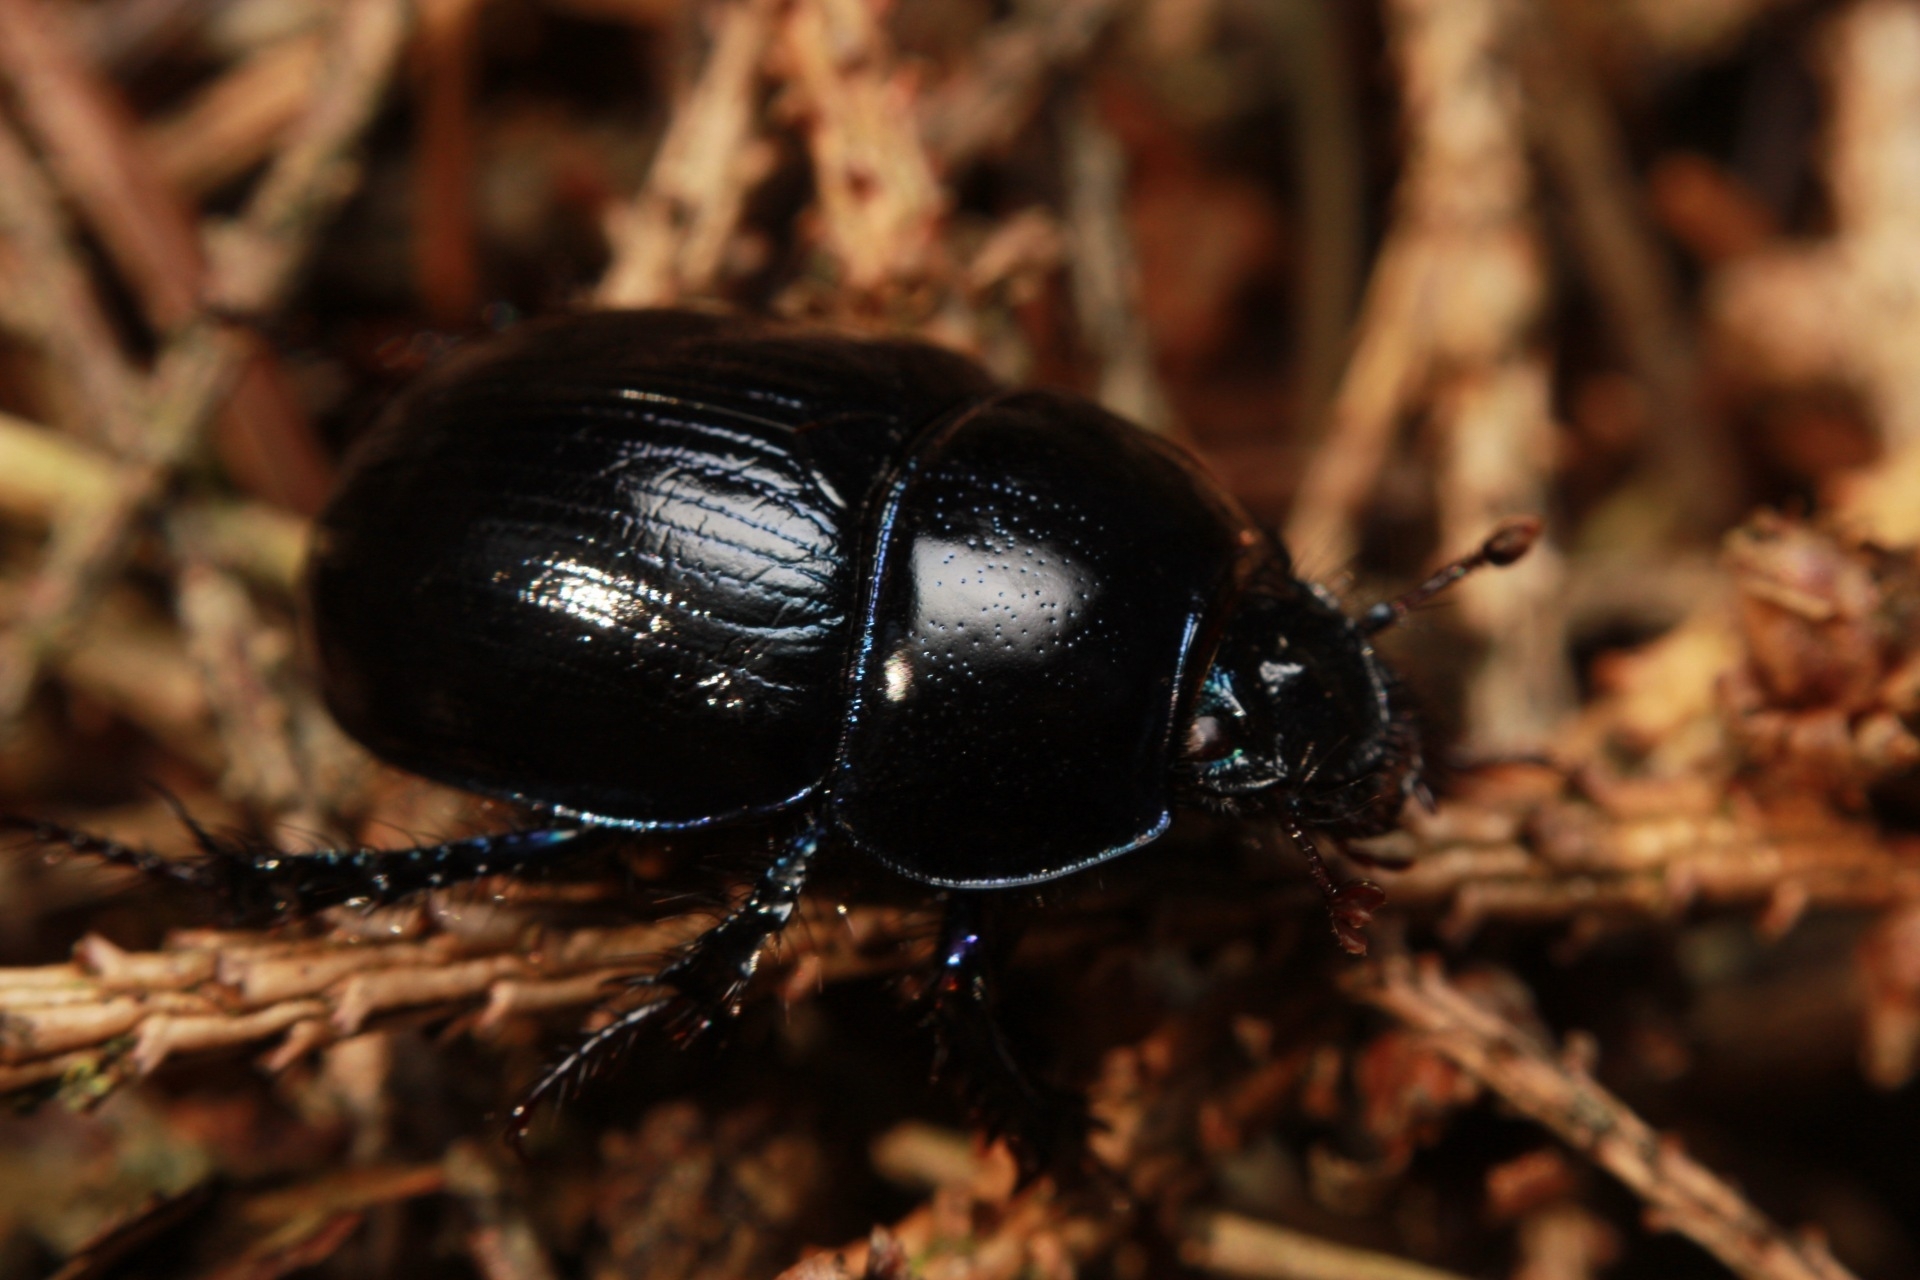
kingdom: Animalia
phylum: Arthropoda
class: Insecta
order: Coleoptera
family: Geotrupidae
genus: Anoplotrupes
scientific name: Anoplotrupes stercorosus
